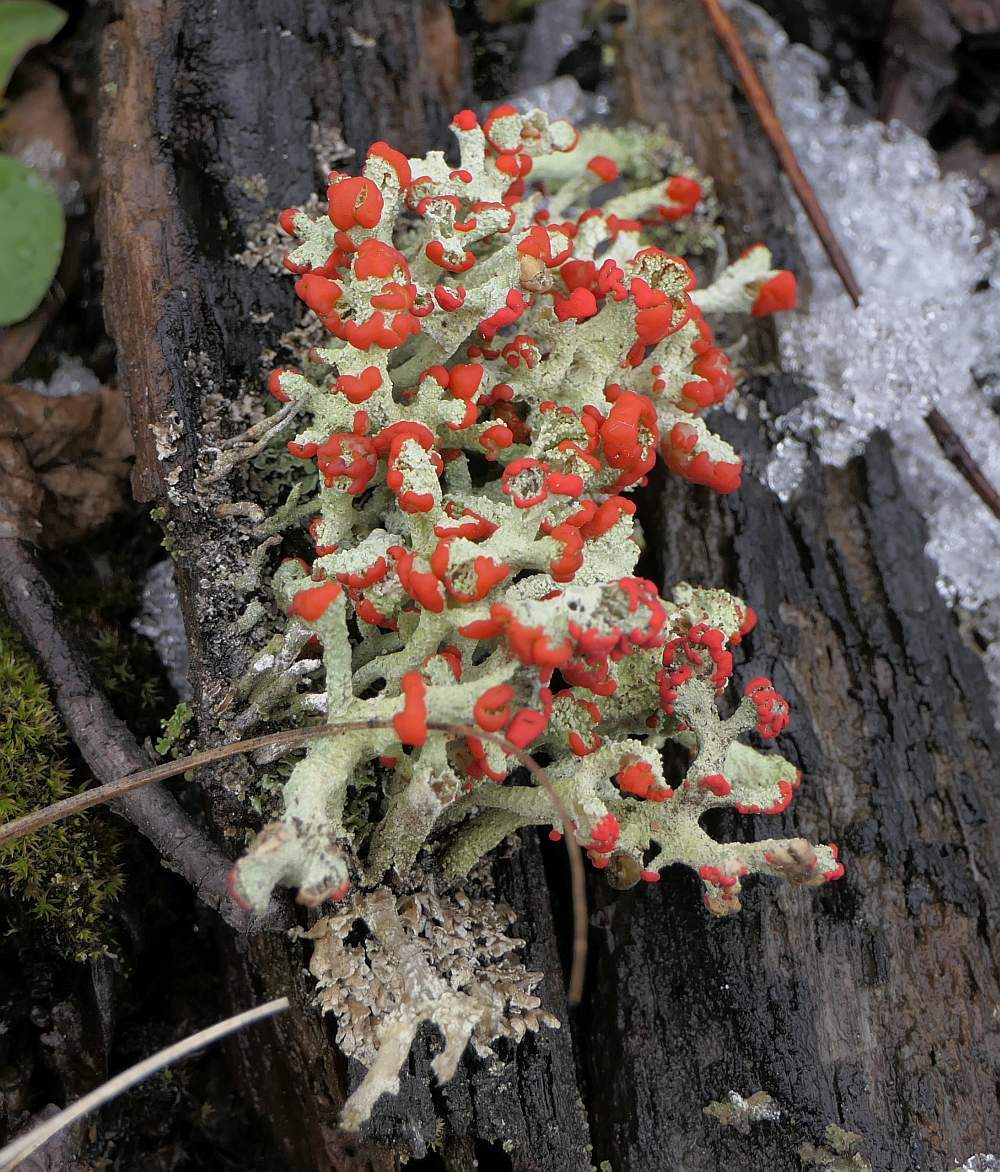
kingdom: Fungi
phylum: Ascomycota
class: Lecanoromycetes
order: Lecanorales
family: Cladoniaceae
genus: Cladonia
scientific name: Cladonia cristatella
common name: British soldier lichen
